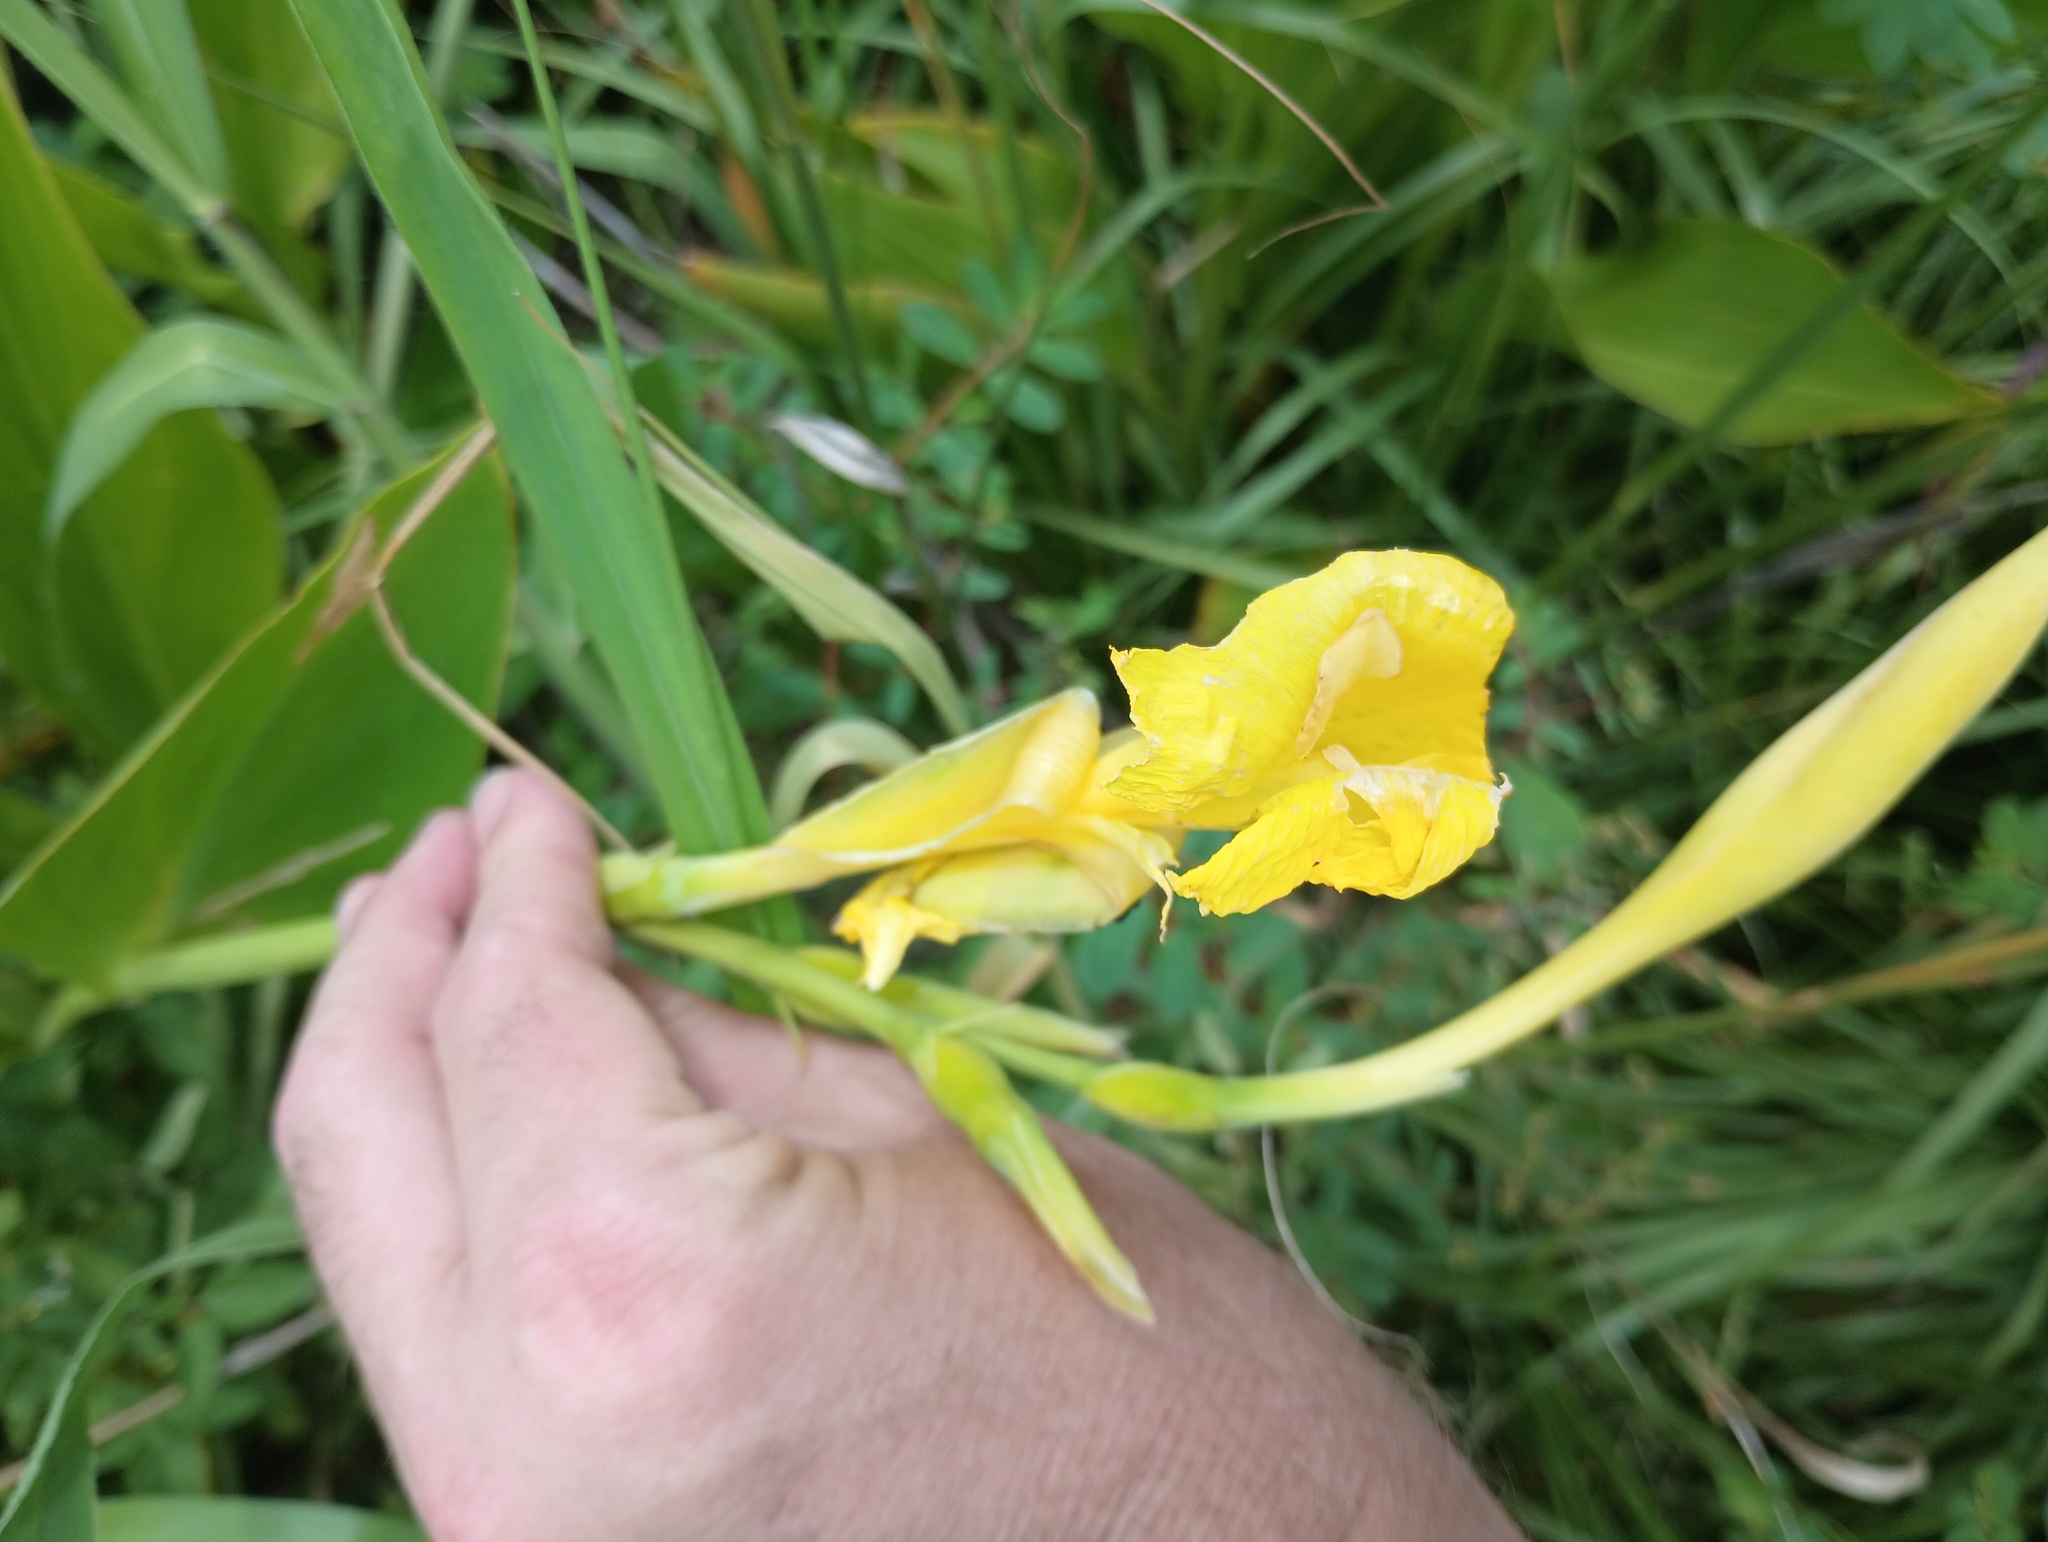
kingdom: Plantae
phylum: Tracheophyta
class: Liliopsida
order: Zingiberales
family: Cannaceae
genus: Canna
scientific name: Canna flaccida
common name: Bandana-of-the-everglades
